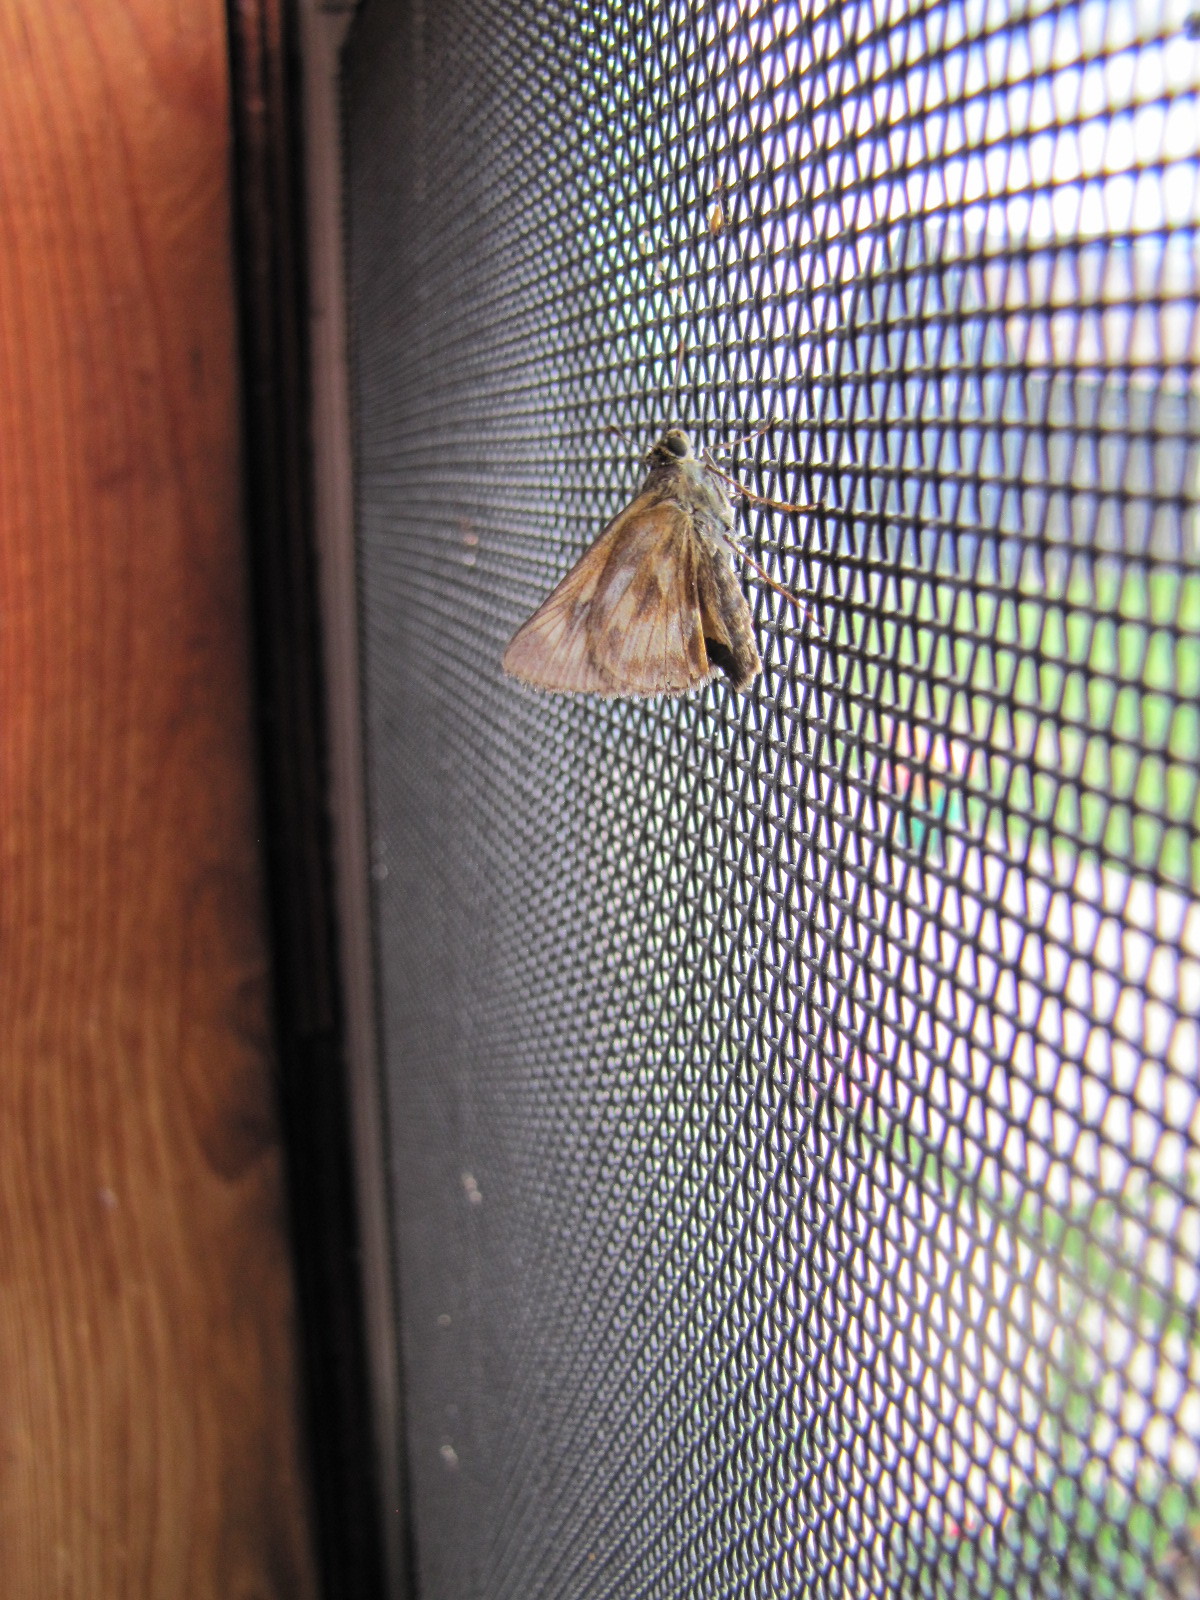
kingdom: Animalia
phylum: Arthropoda
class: Insecta
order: Lepidoptera
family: Hesperiidae
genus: Polites
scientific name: Polites mystic
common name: Long dash
